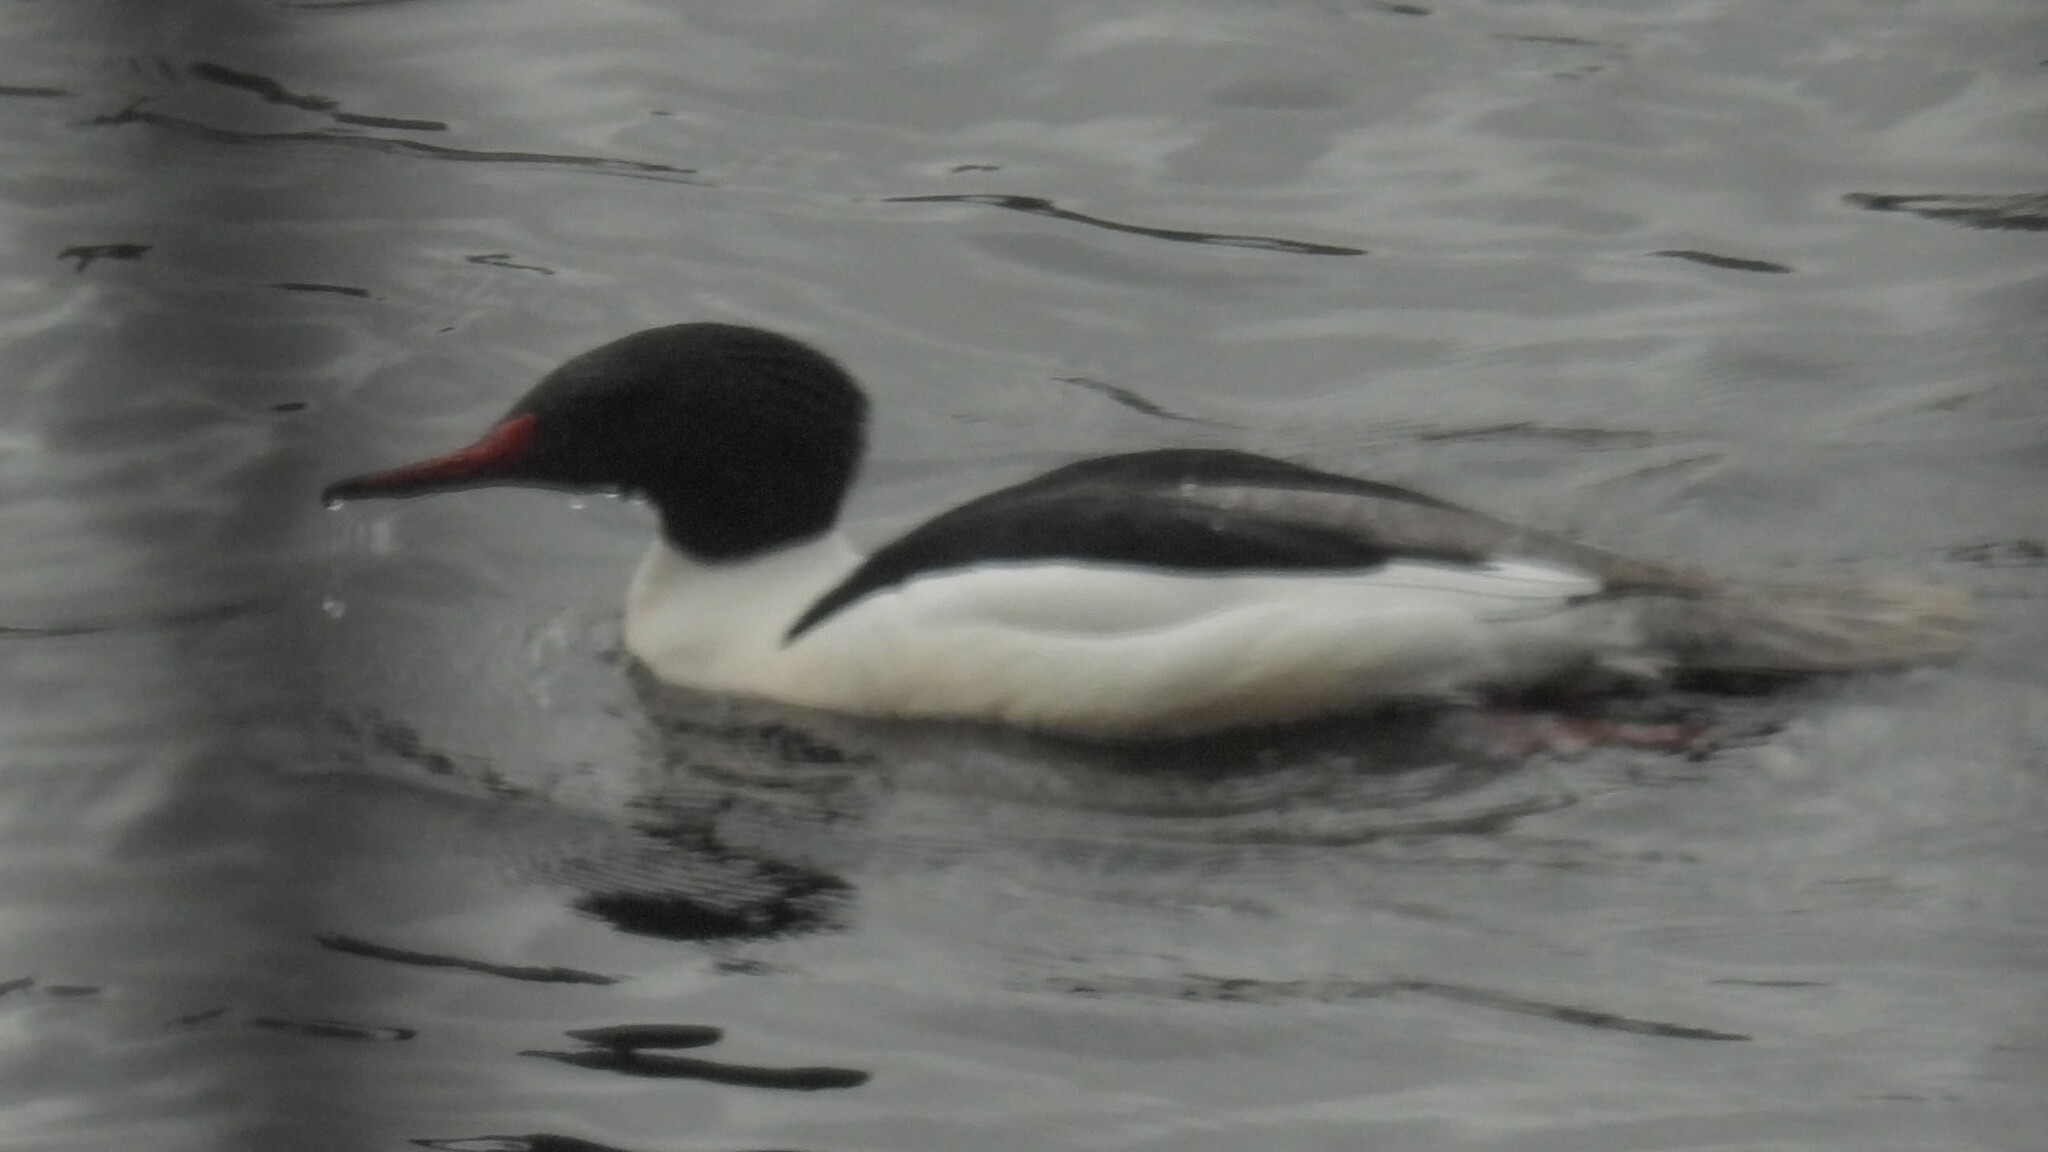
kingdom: Animalia
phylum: Chordata
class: Aves
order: Anseriformes
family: Anatidae
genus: Mergus
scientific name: Mergus merganser
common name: Common merganser
